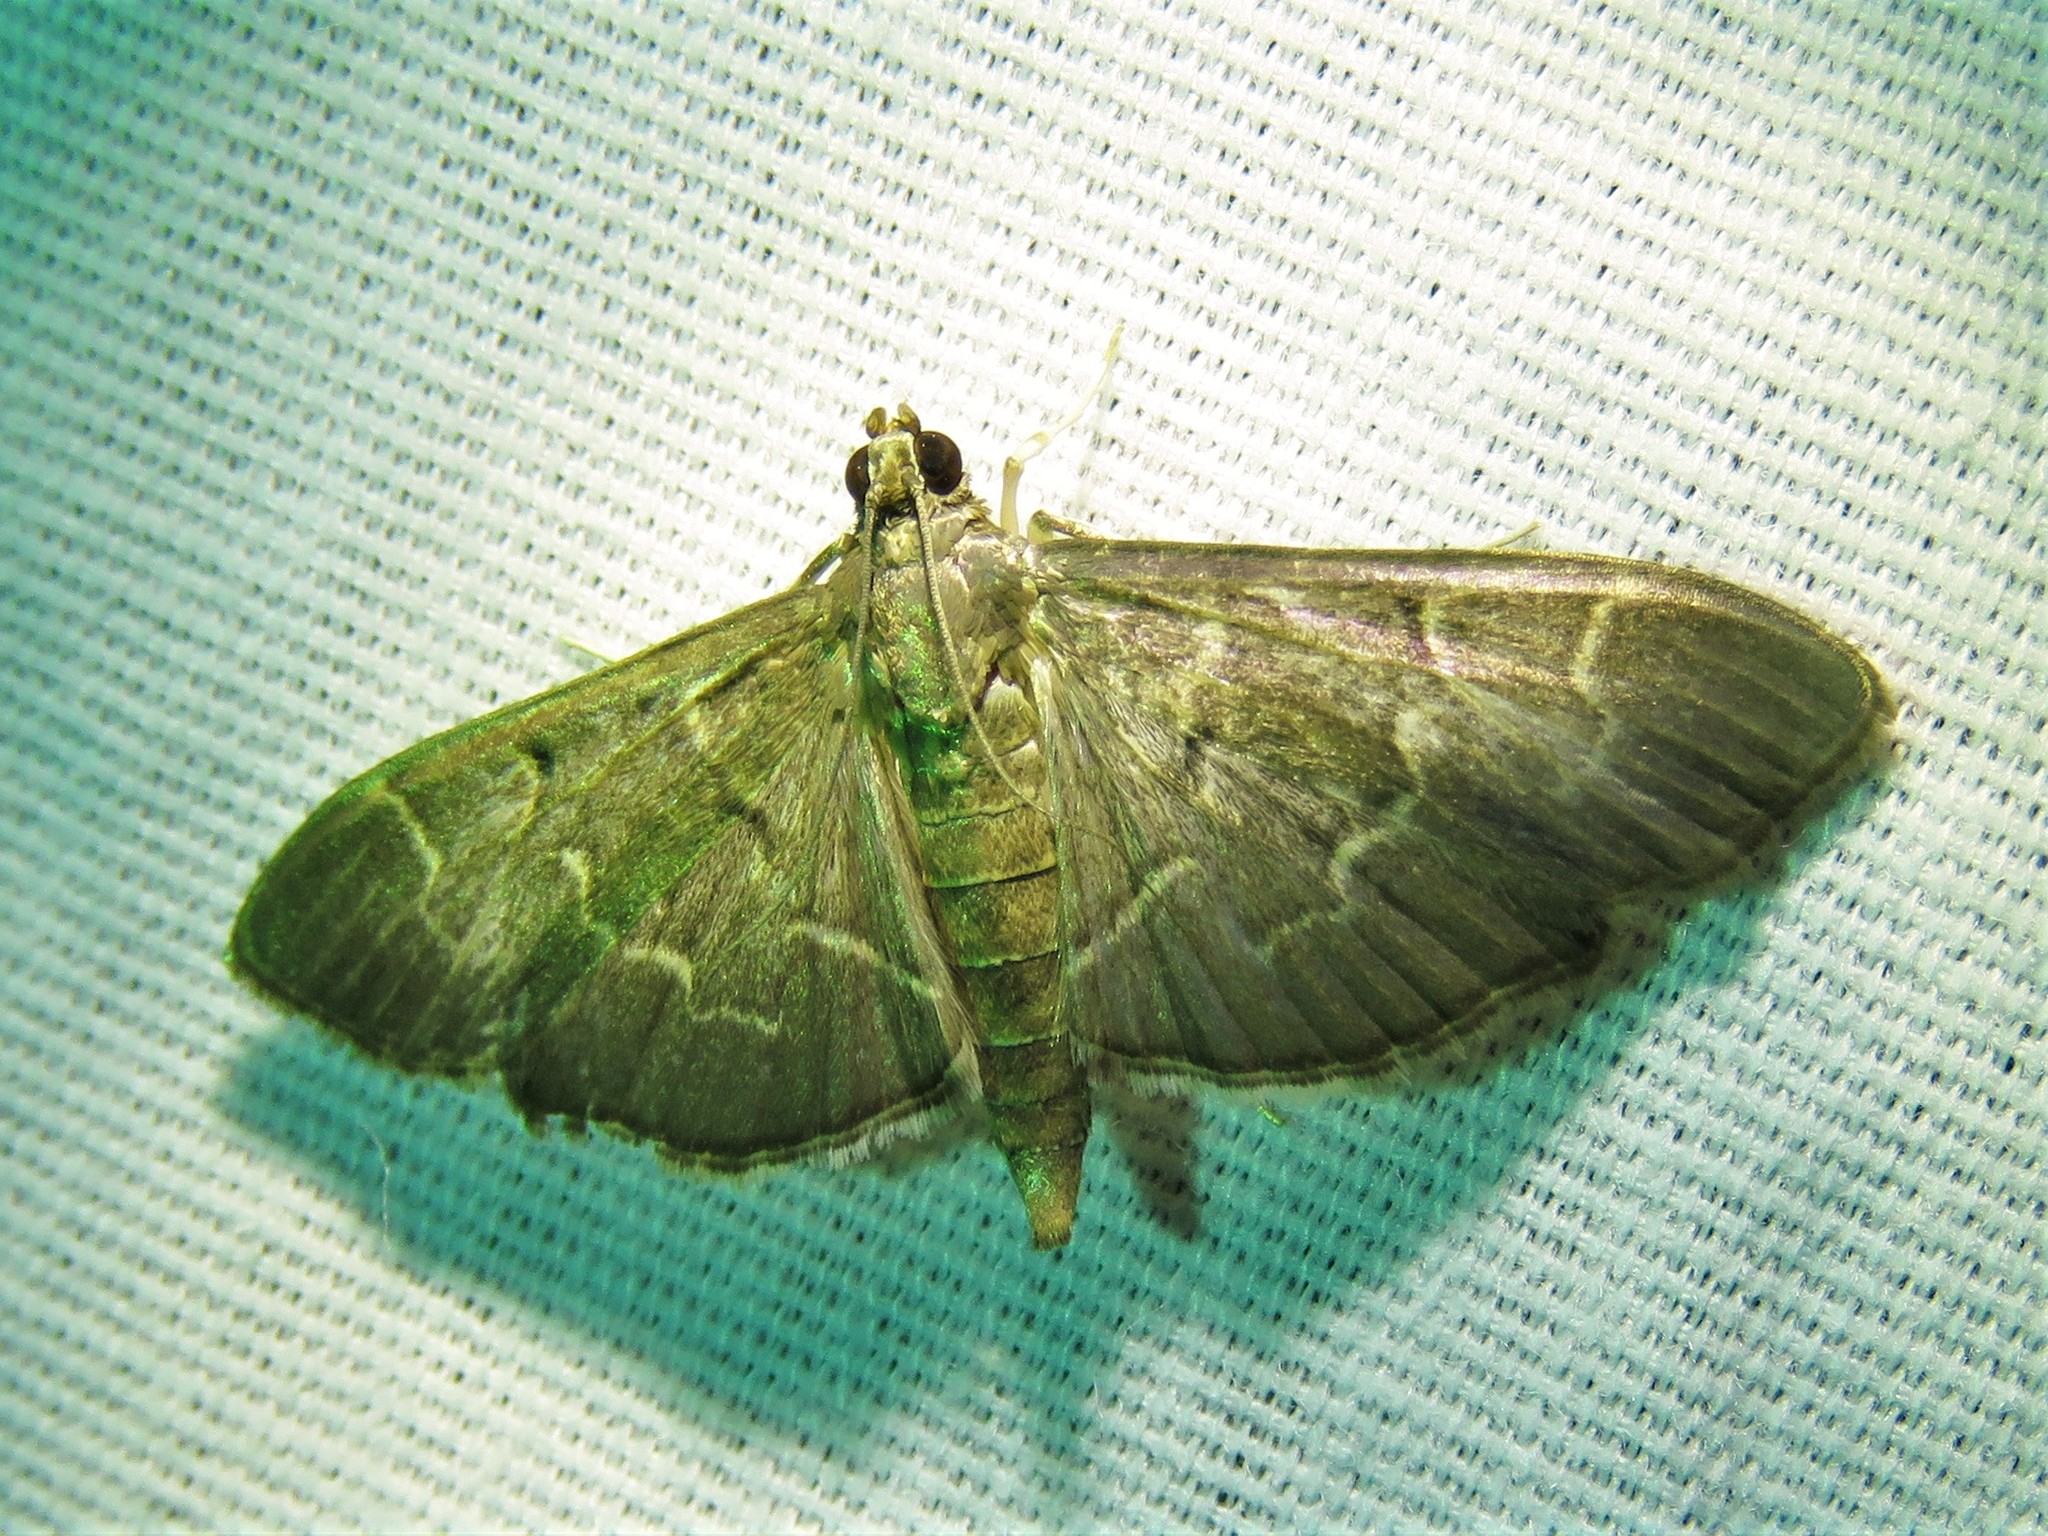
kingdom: Animalia
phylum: Arthropoda
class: Insecta
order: Lepidoptera
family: Crambidae
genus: Pilocrocis
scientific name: Pilocrocis ramentalis
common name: Scraped pilocrocis
